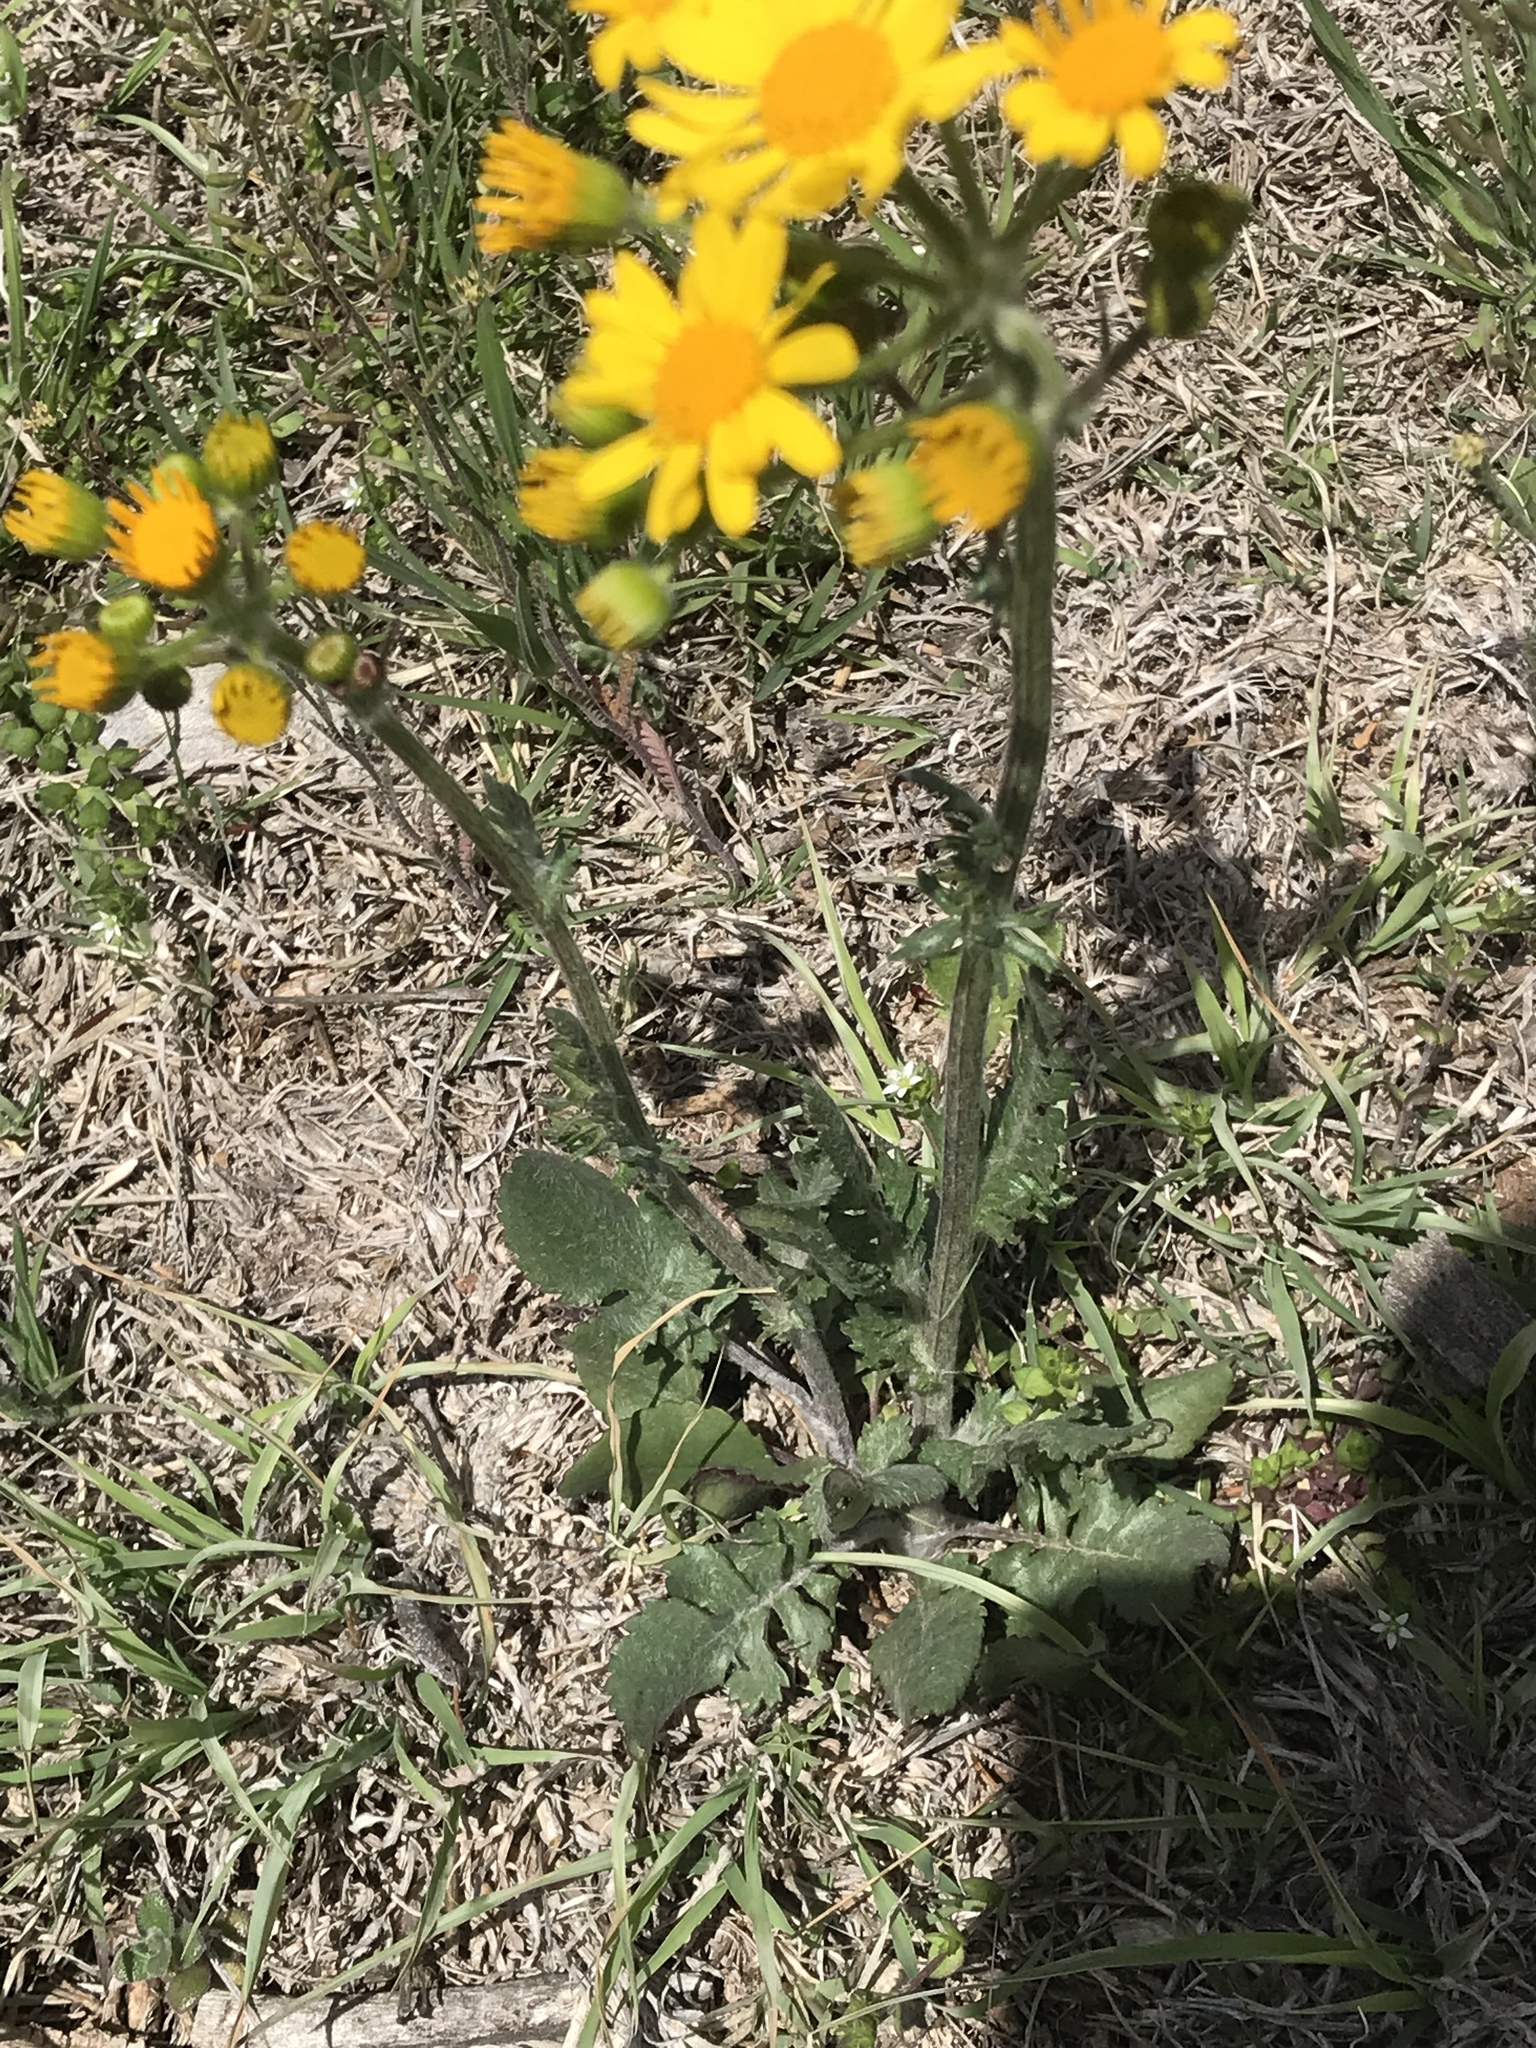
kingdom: Plantae
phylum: Tracheophyta
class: Magnoliopsida
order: Asterales
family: Asteraceae
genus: Packera
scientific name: Packera plattensis
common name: Prairie groundsel
